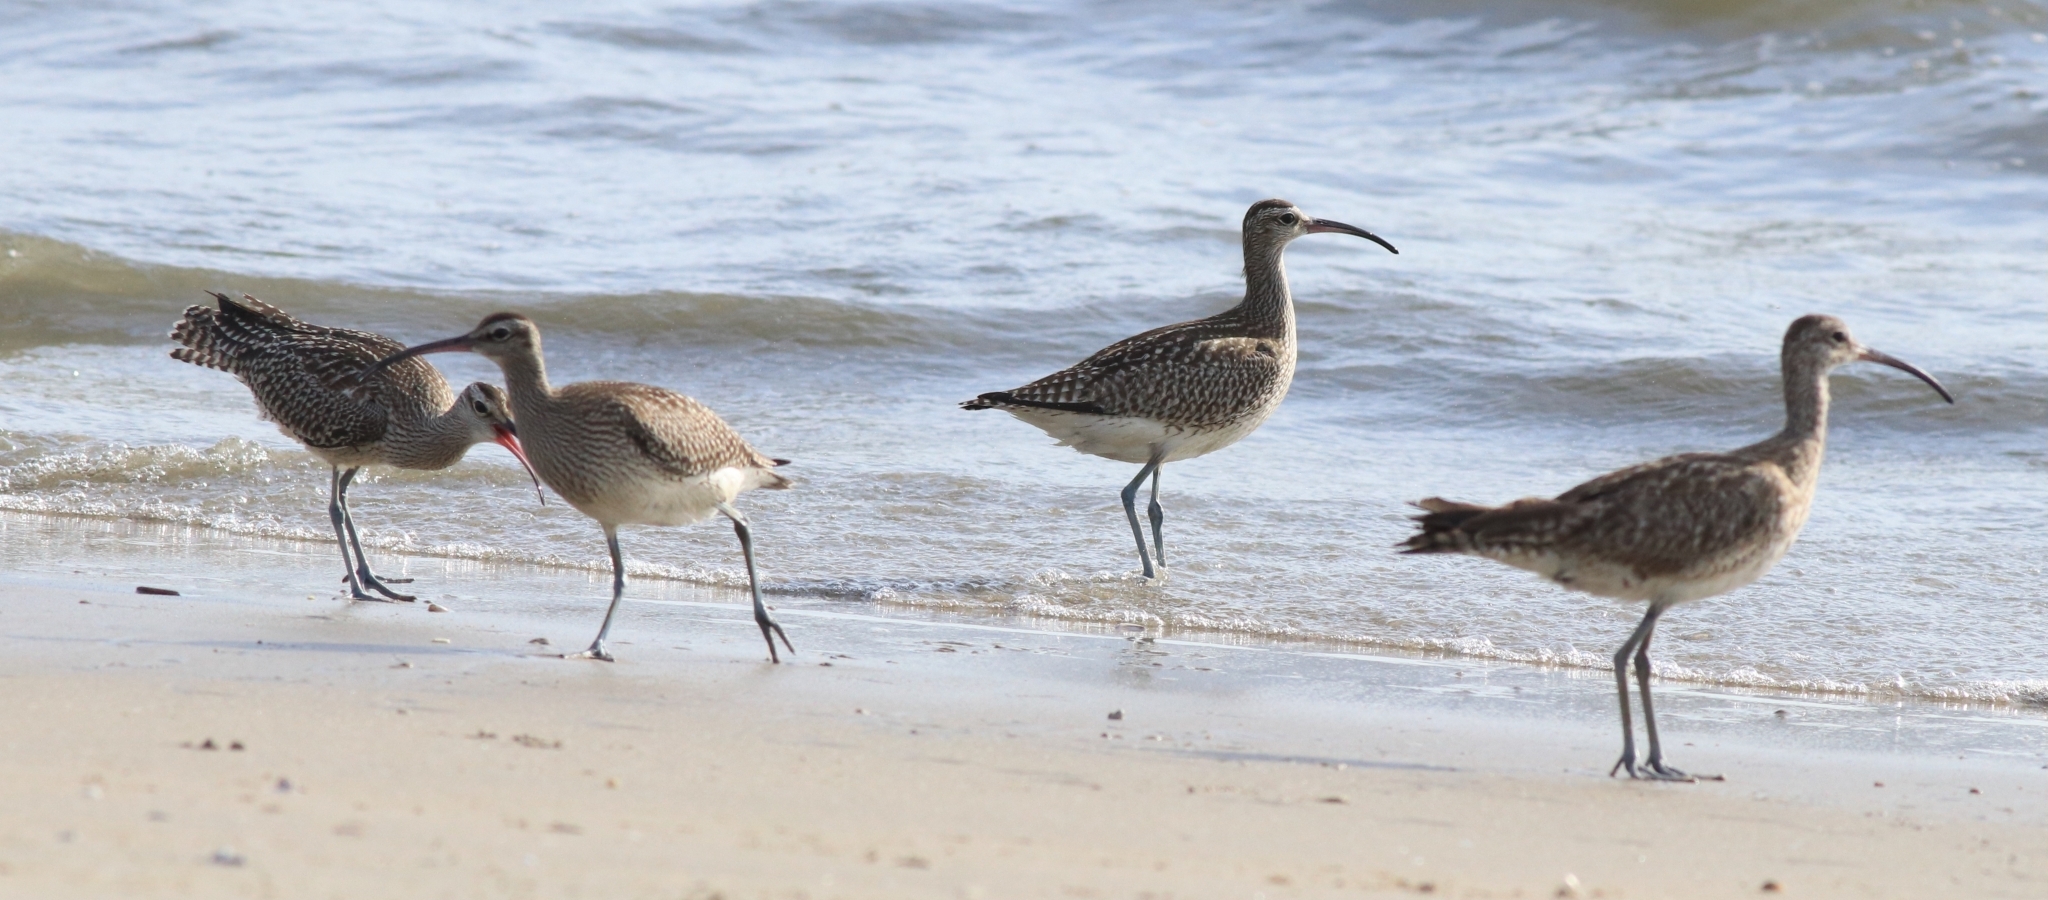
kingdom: Animalia
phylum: Chordata
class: Aves
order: Charadriiformes
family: Scolopacidae
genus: Numenius
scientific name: Numenius phaeopus
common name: Whimbrel
